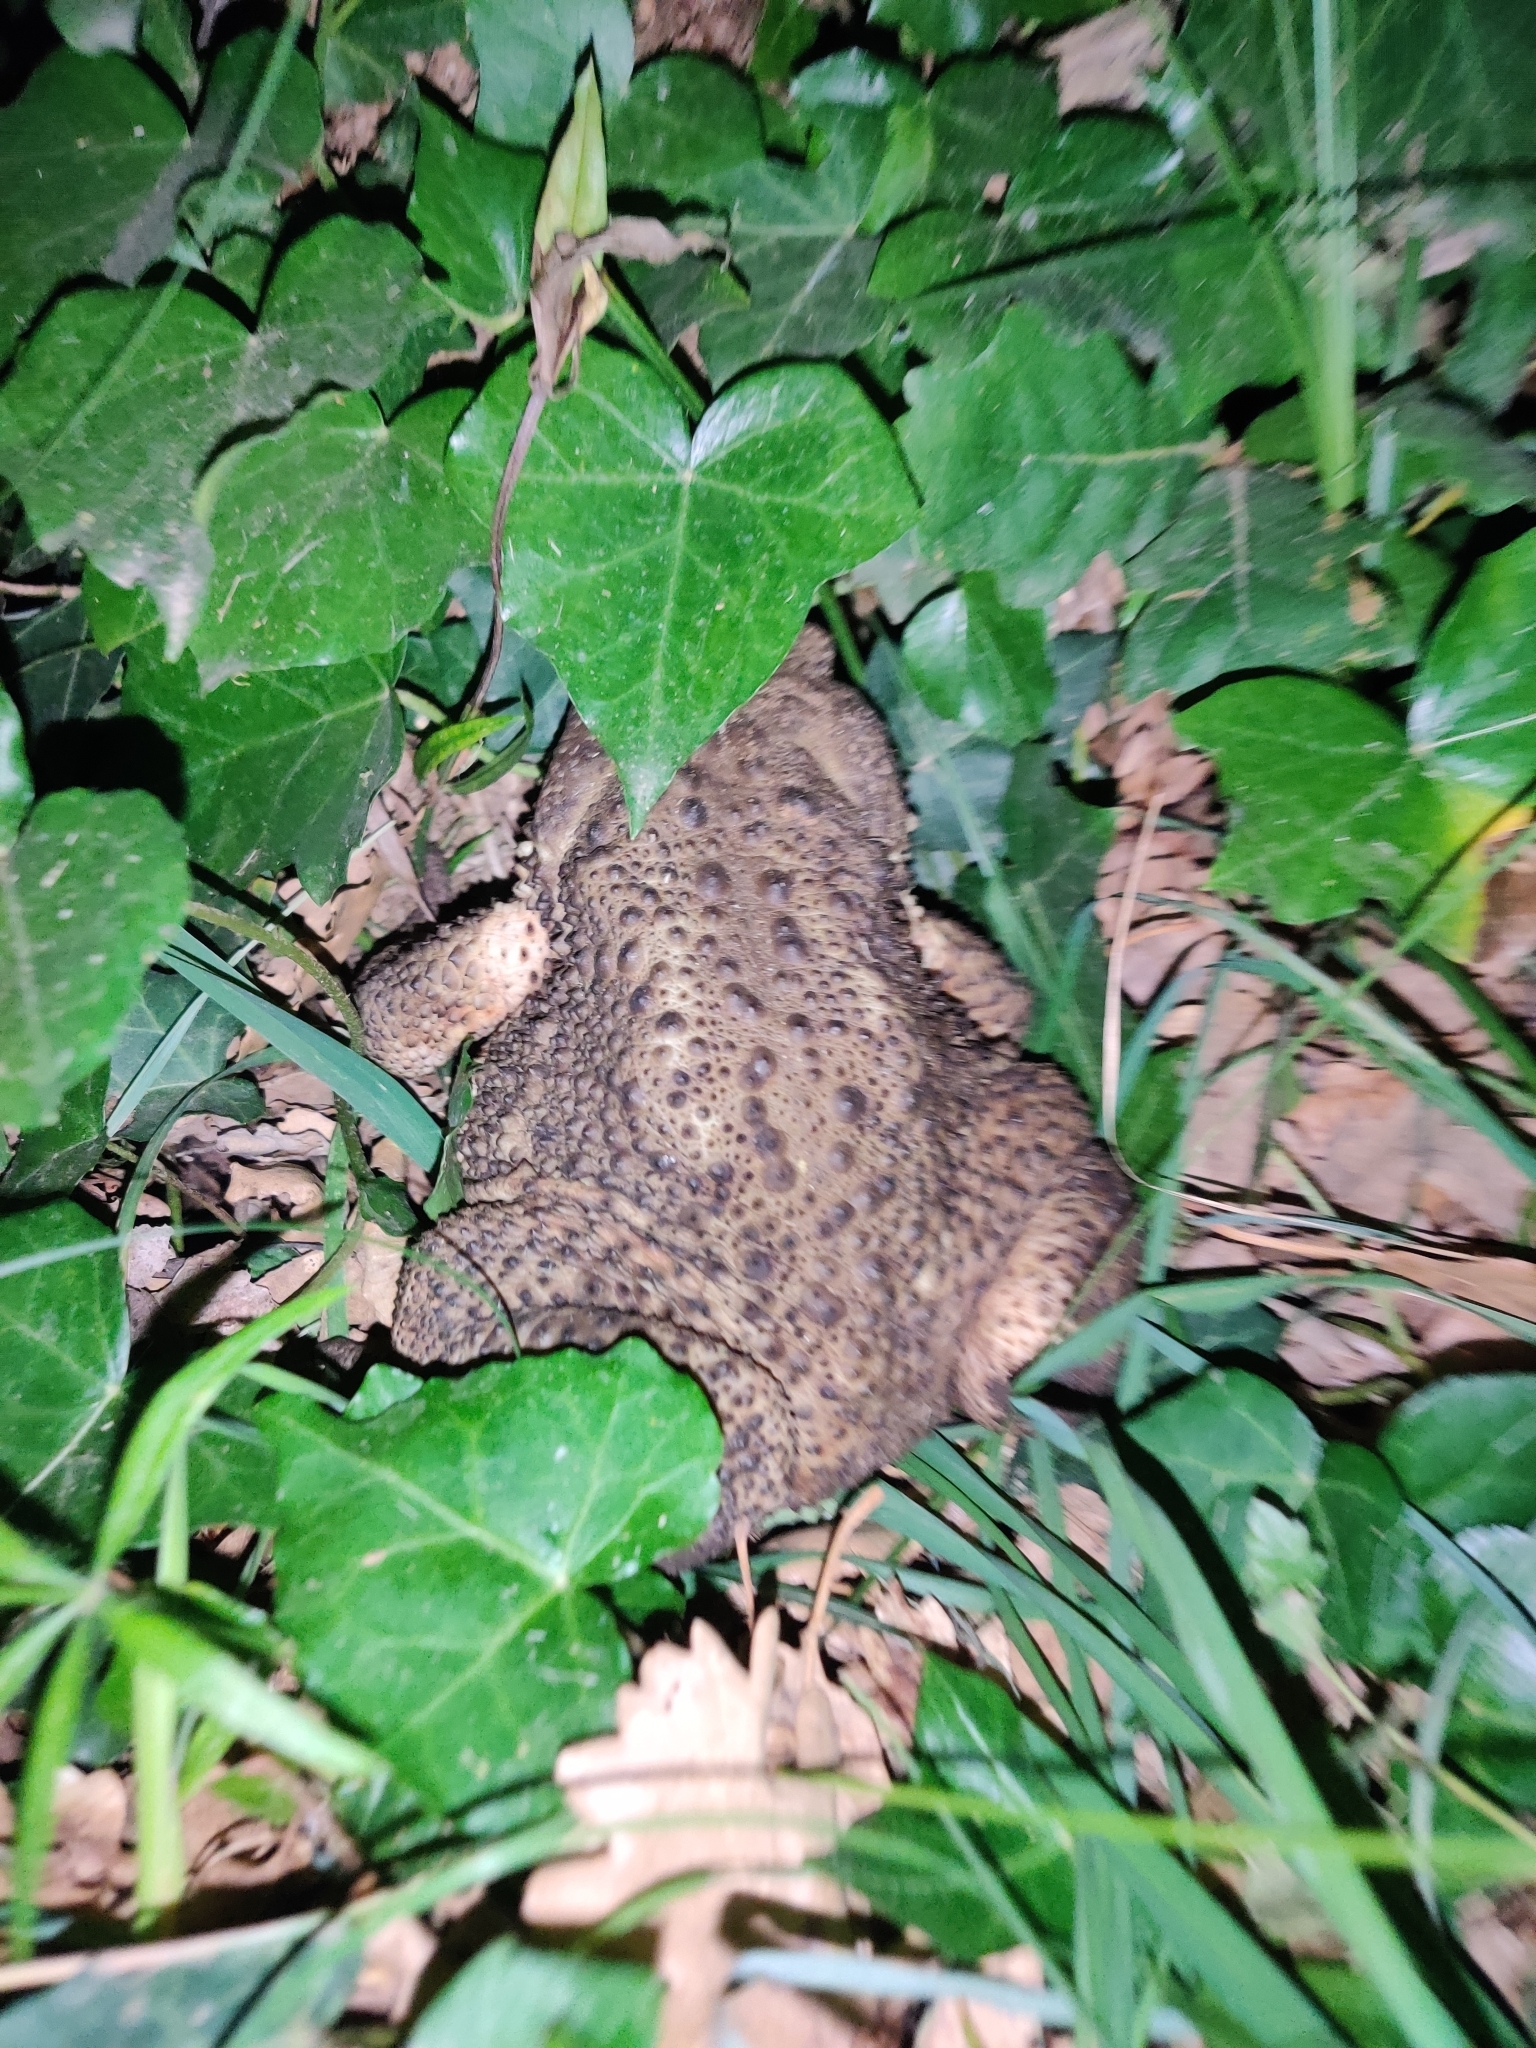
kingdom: Animalia
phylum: Chordata
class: Amphibia
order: Anura
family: Bufonidae
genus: Bufo
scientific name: Bufo bufo
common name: Common toad
